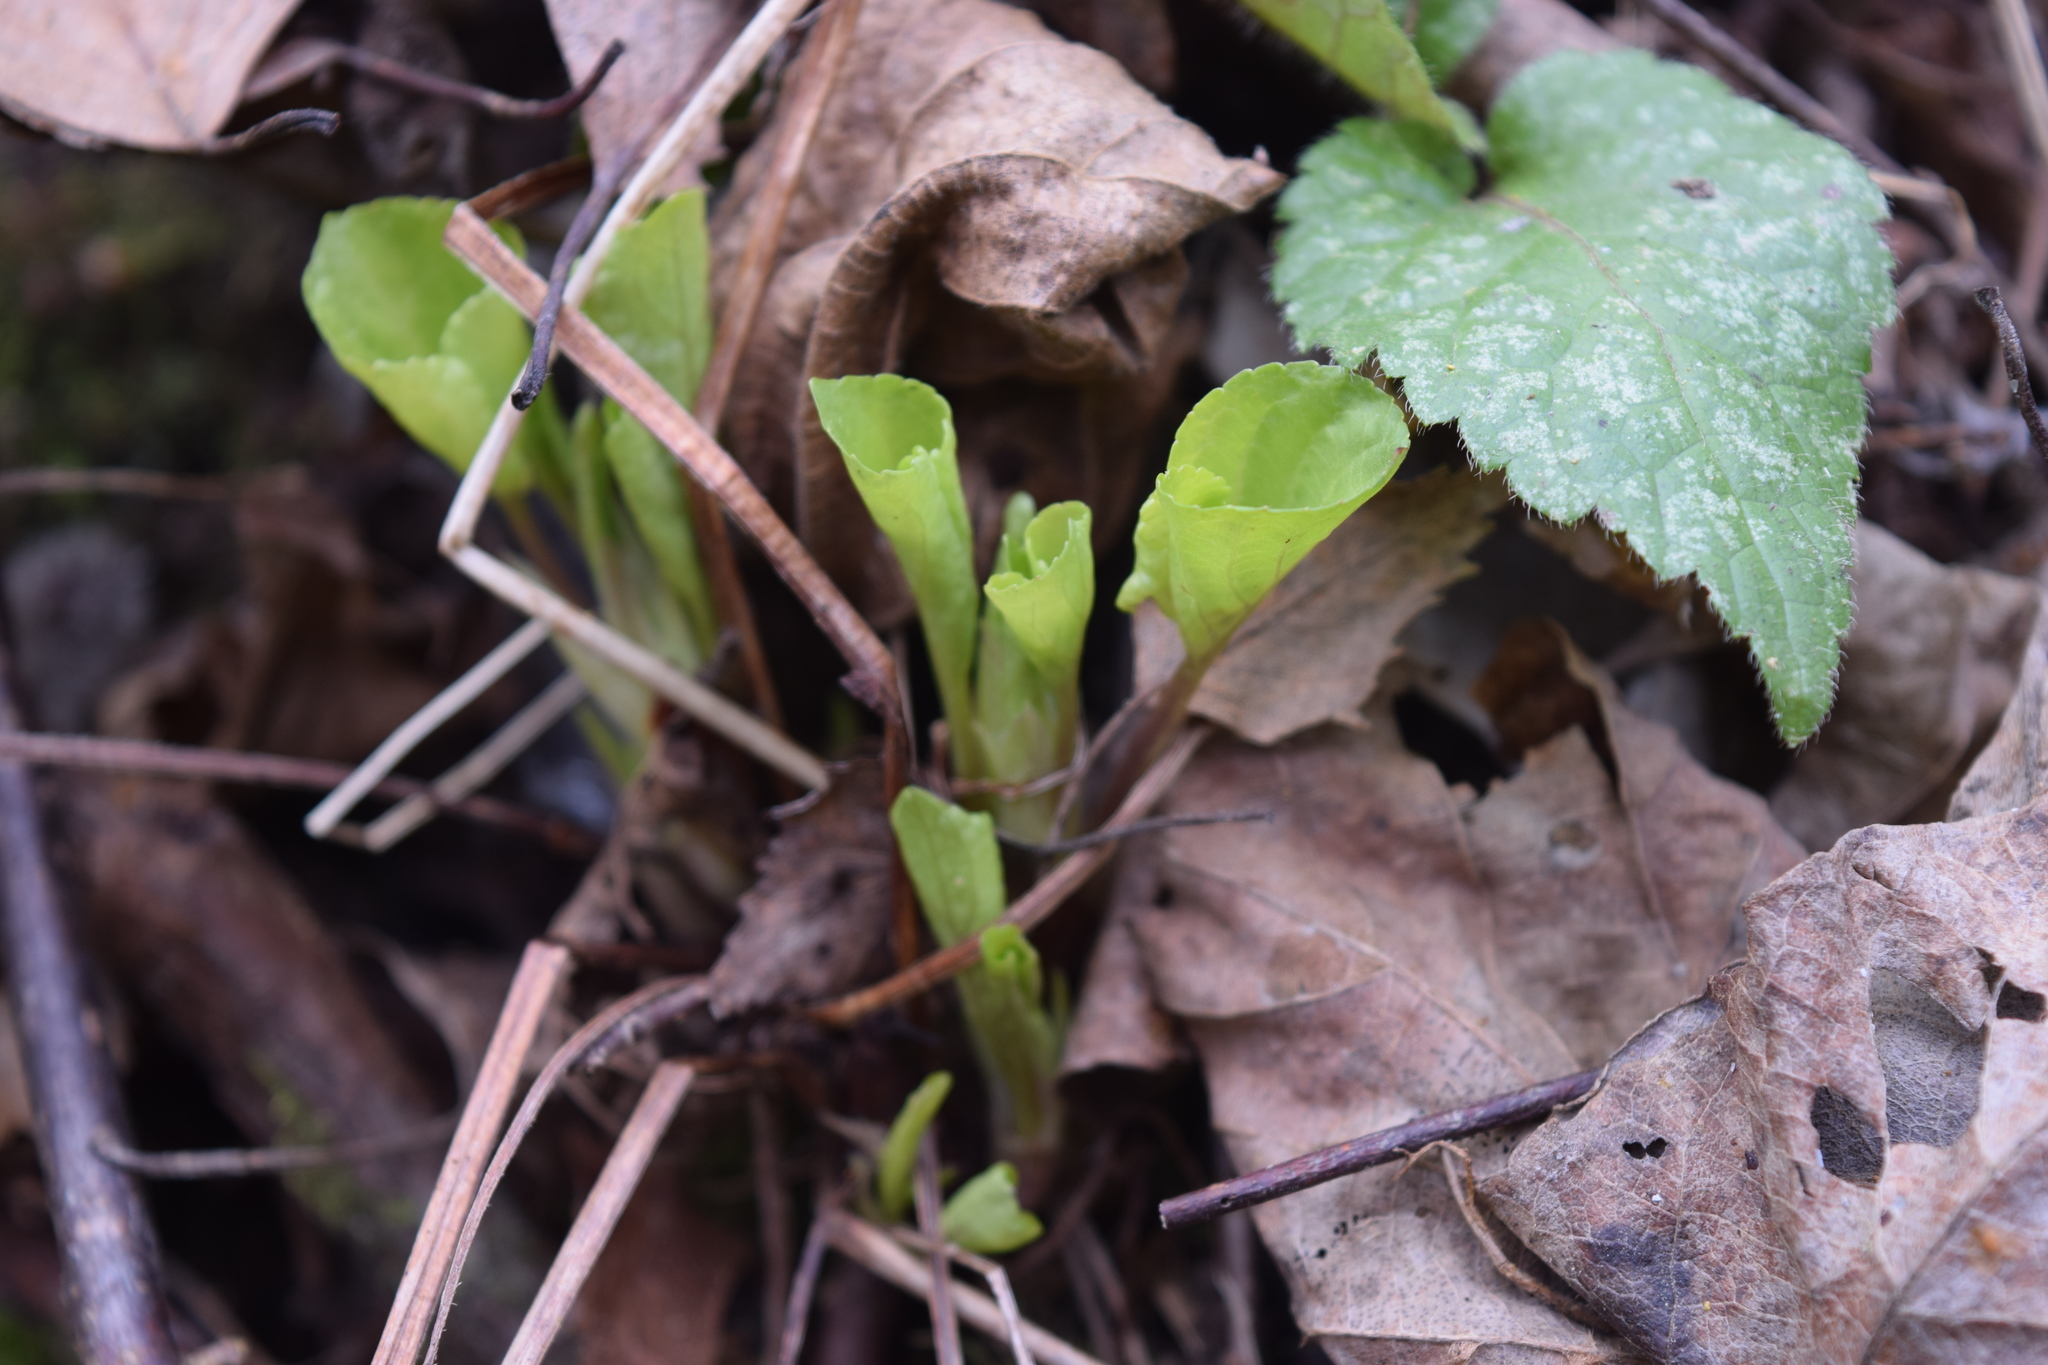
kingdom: Plantae
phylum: Tracheophyta
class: Magnoliopsida
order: Malpighiales
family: Violaceae
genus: Viola
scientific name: Viola mirabilis
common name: Wonder violet
